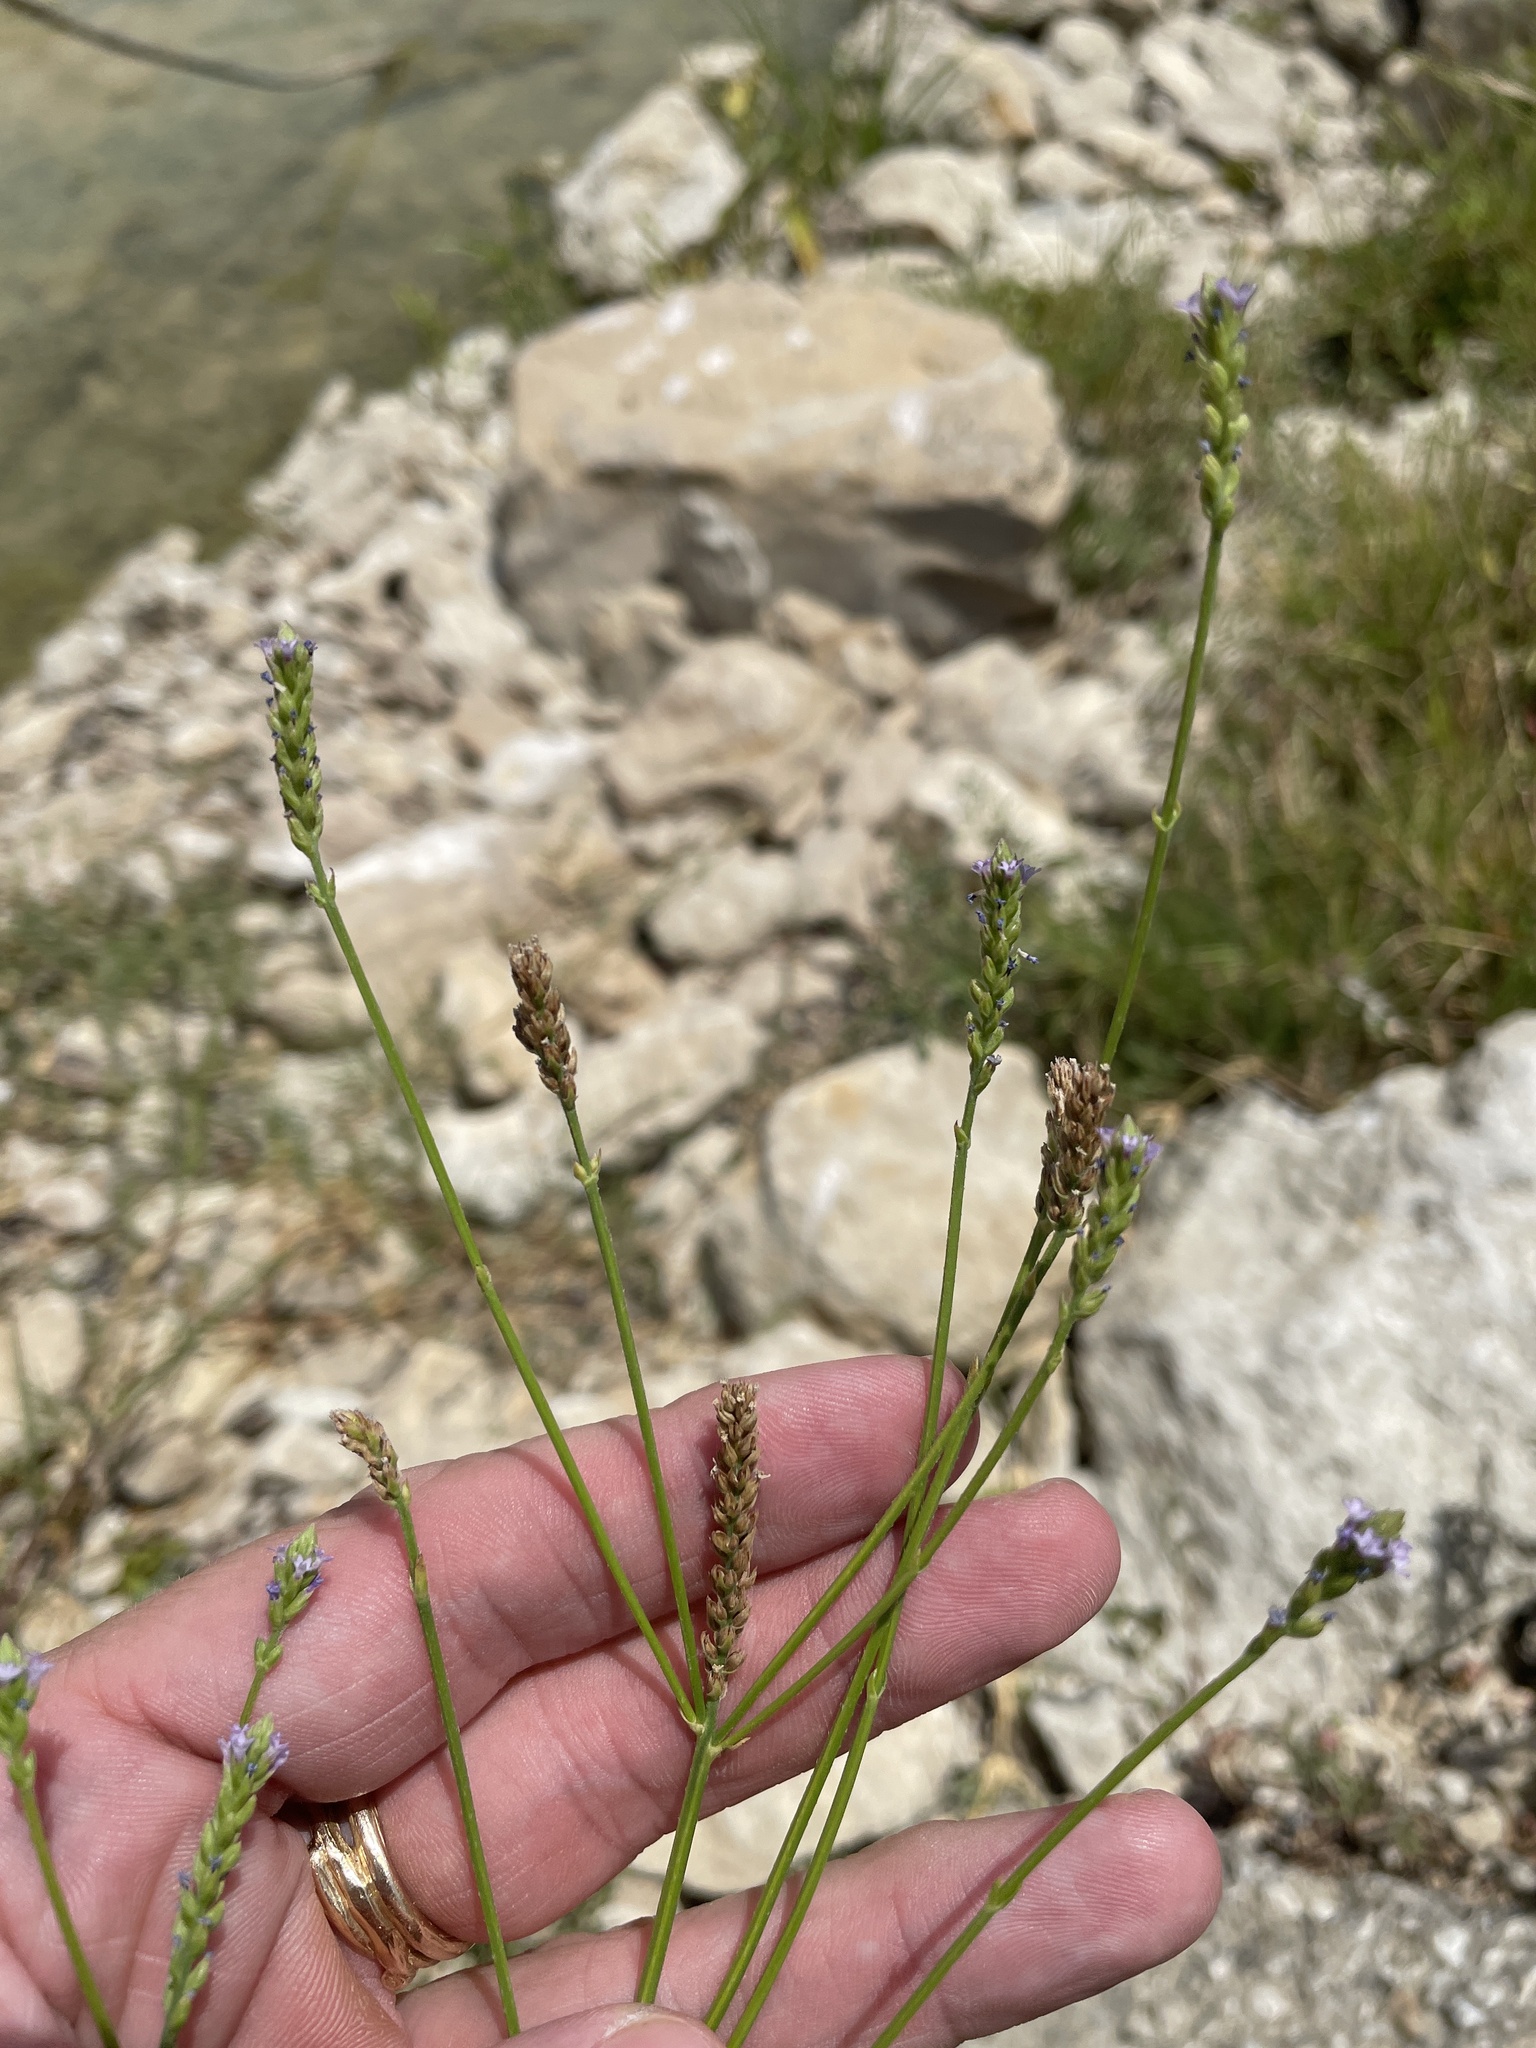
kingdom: Plantae
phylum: Tracheophyta
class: Magnoliopsida
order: Lamiales
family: Verbenaceae
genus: Verbena
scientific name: Verbena brasiliensis
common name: Brazilian vervain
